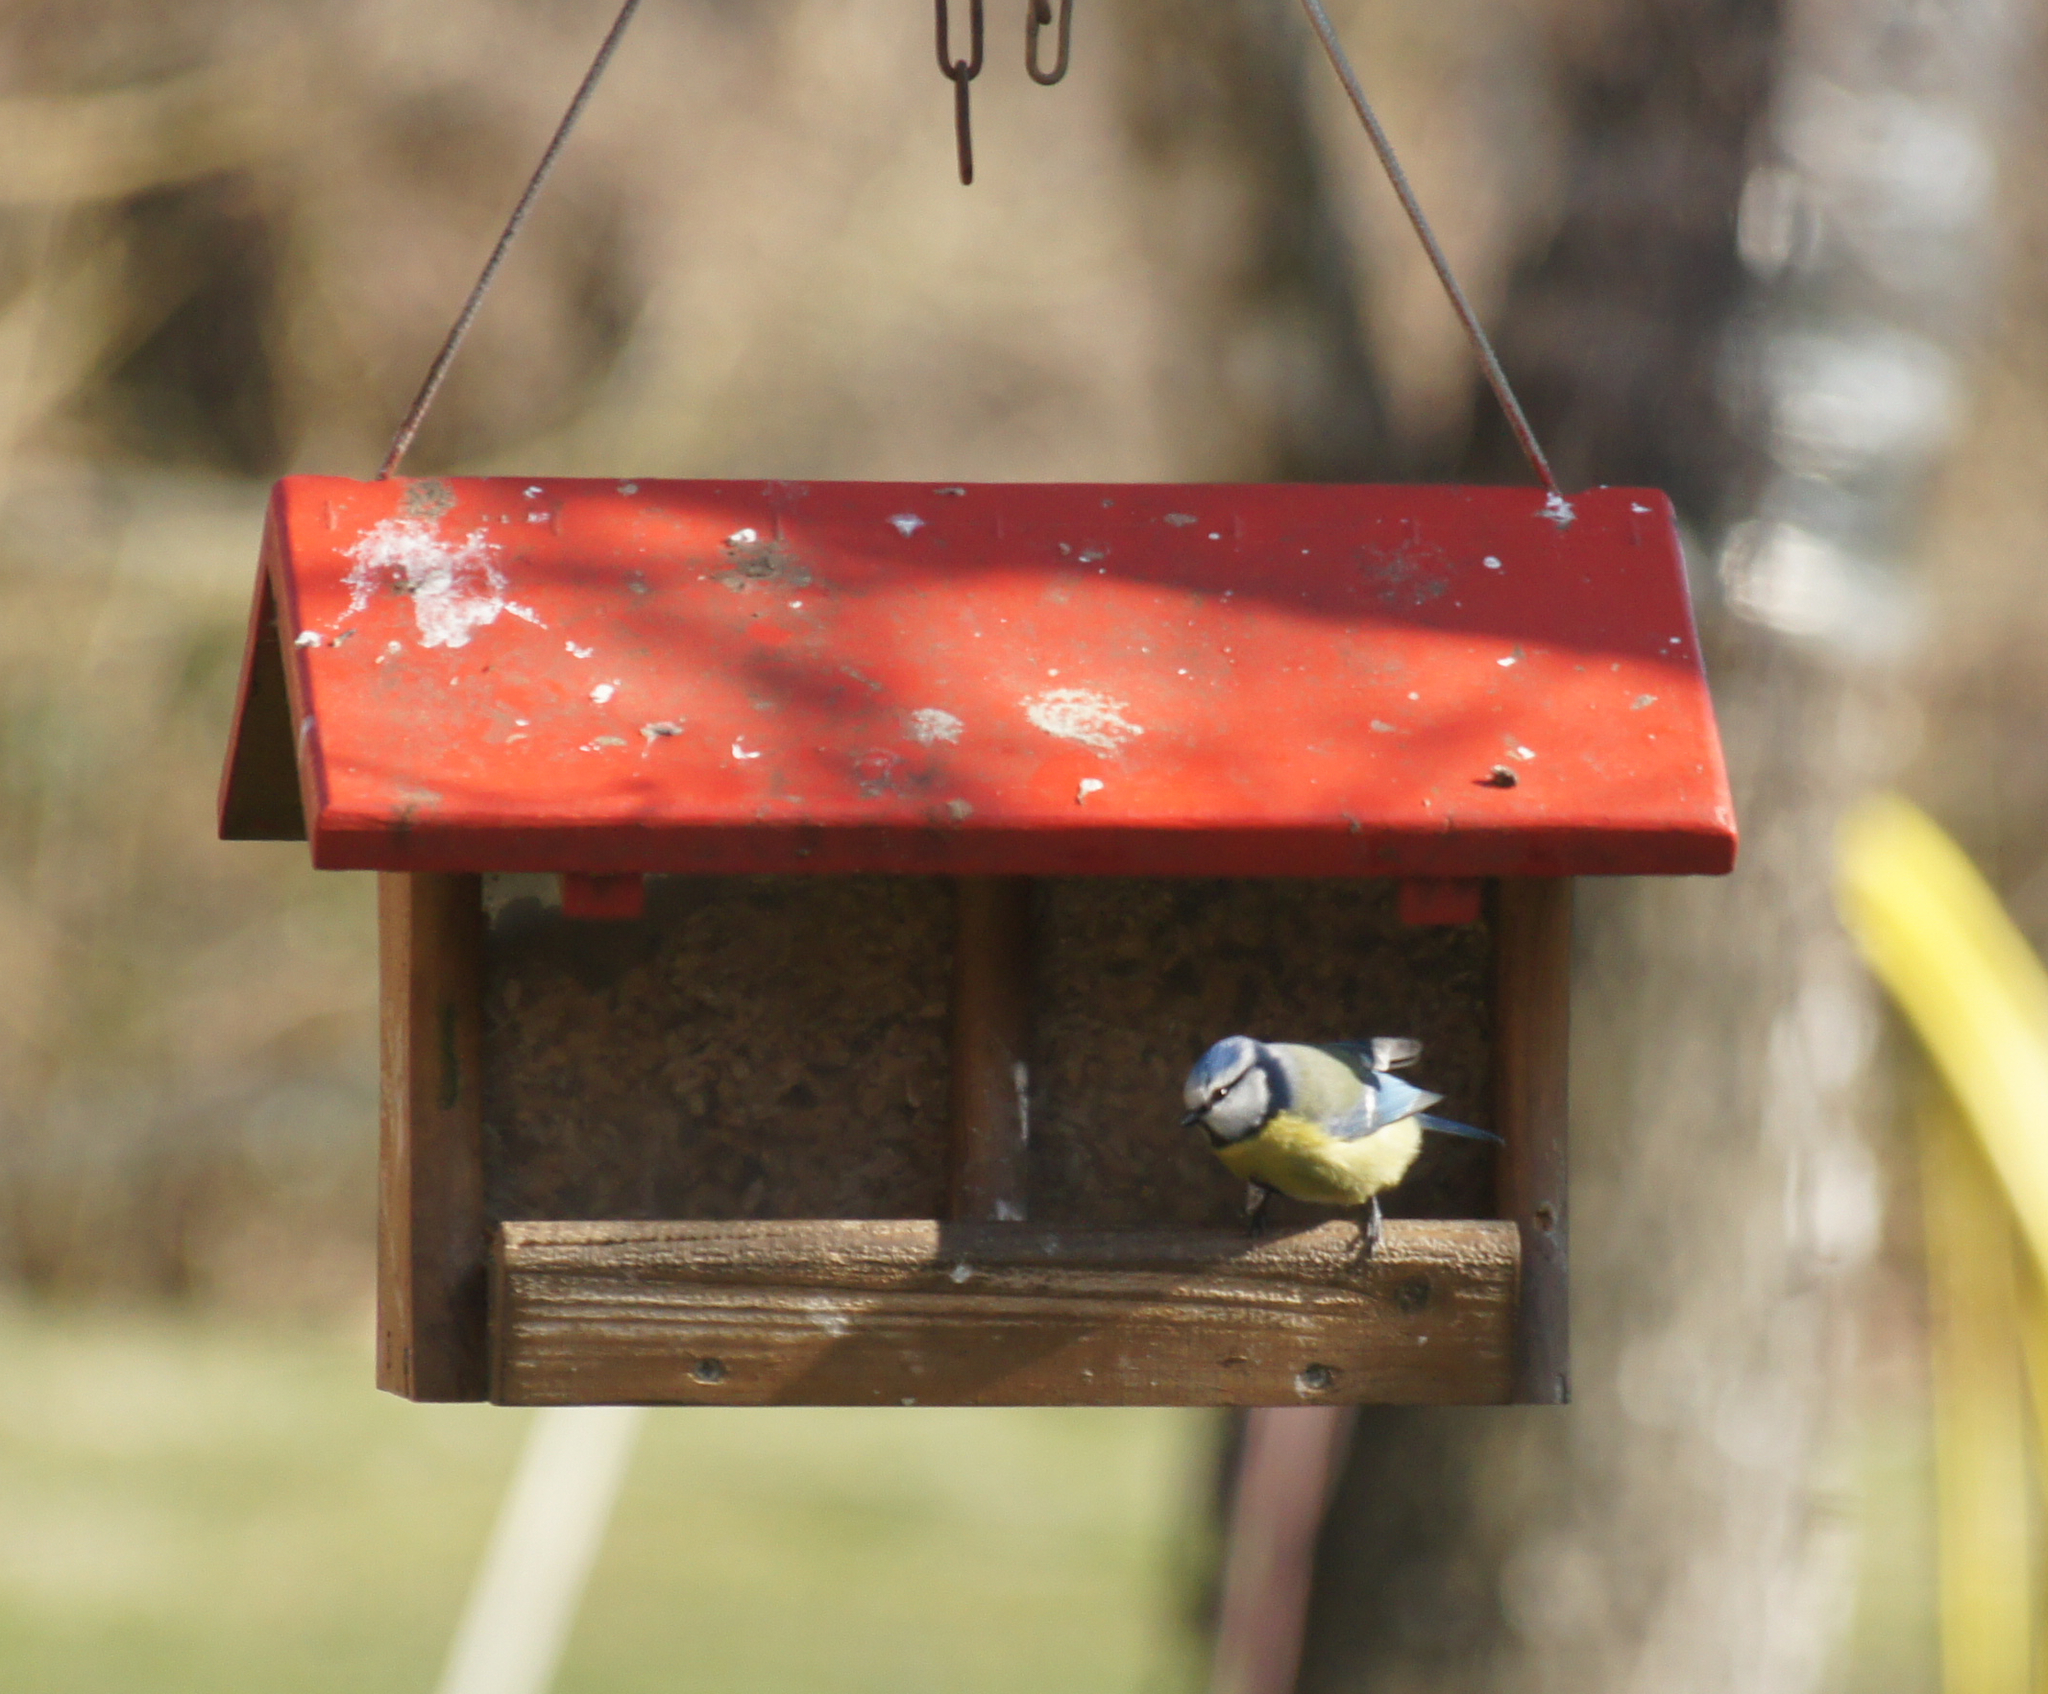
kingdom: Animalia
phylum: Chordata
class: Aves
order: Passeriformes
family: Paridae
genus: Cyanistes
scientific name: Cyanistes caeruleus
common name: Eurasian blue tit
